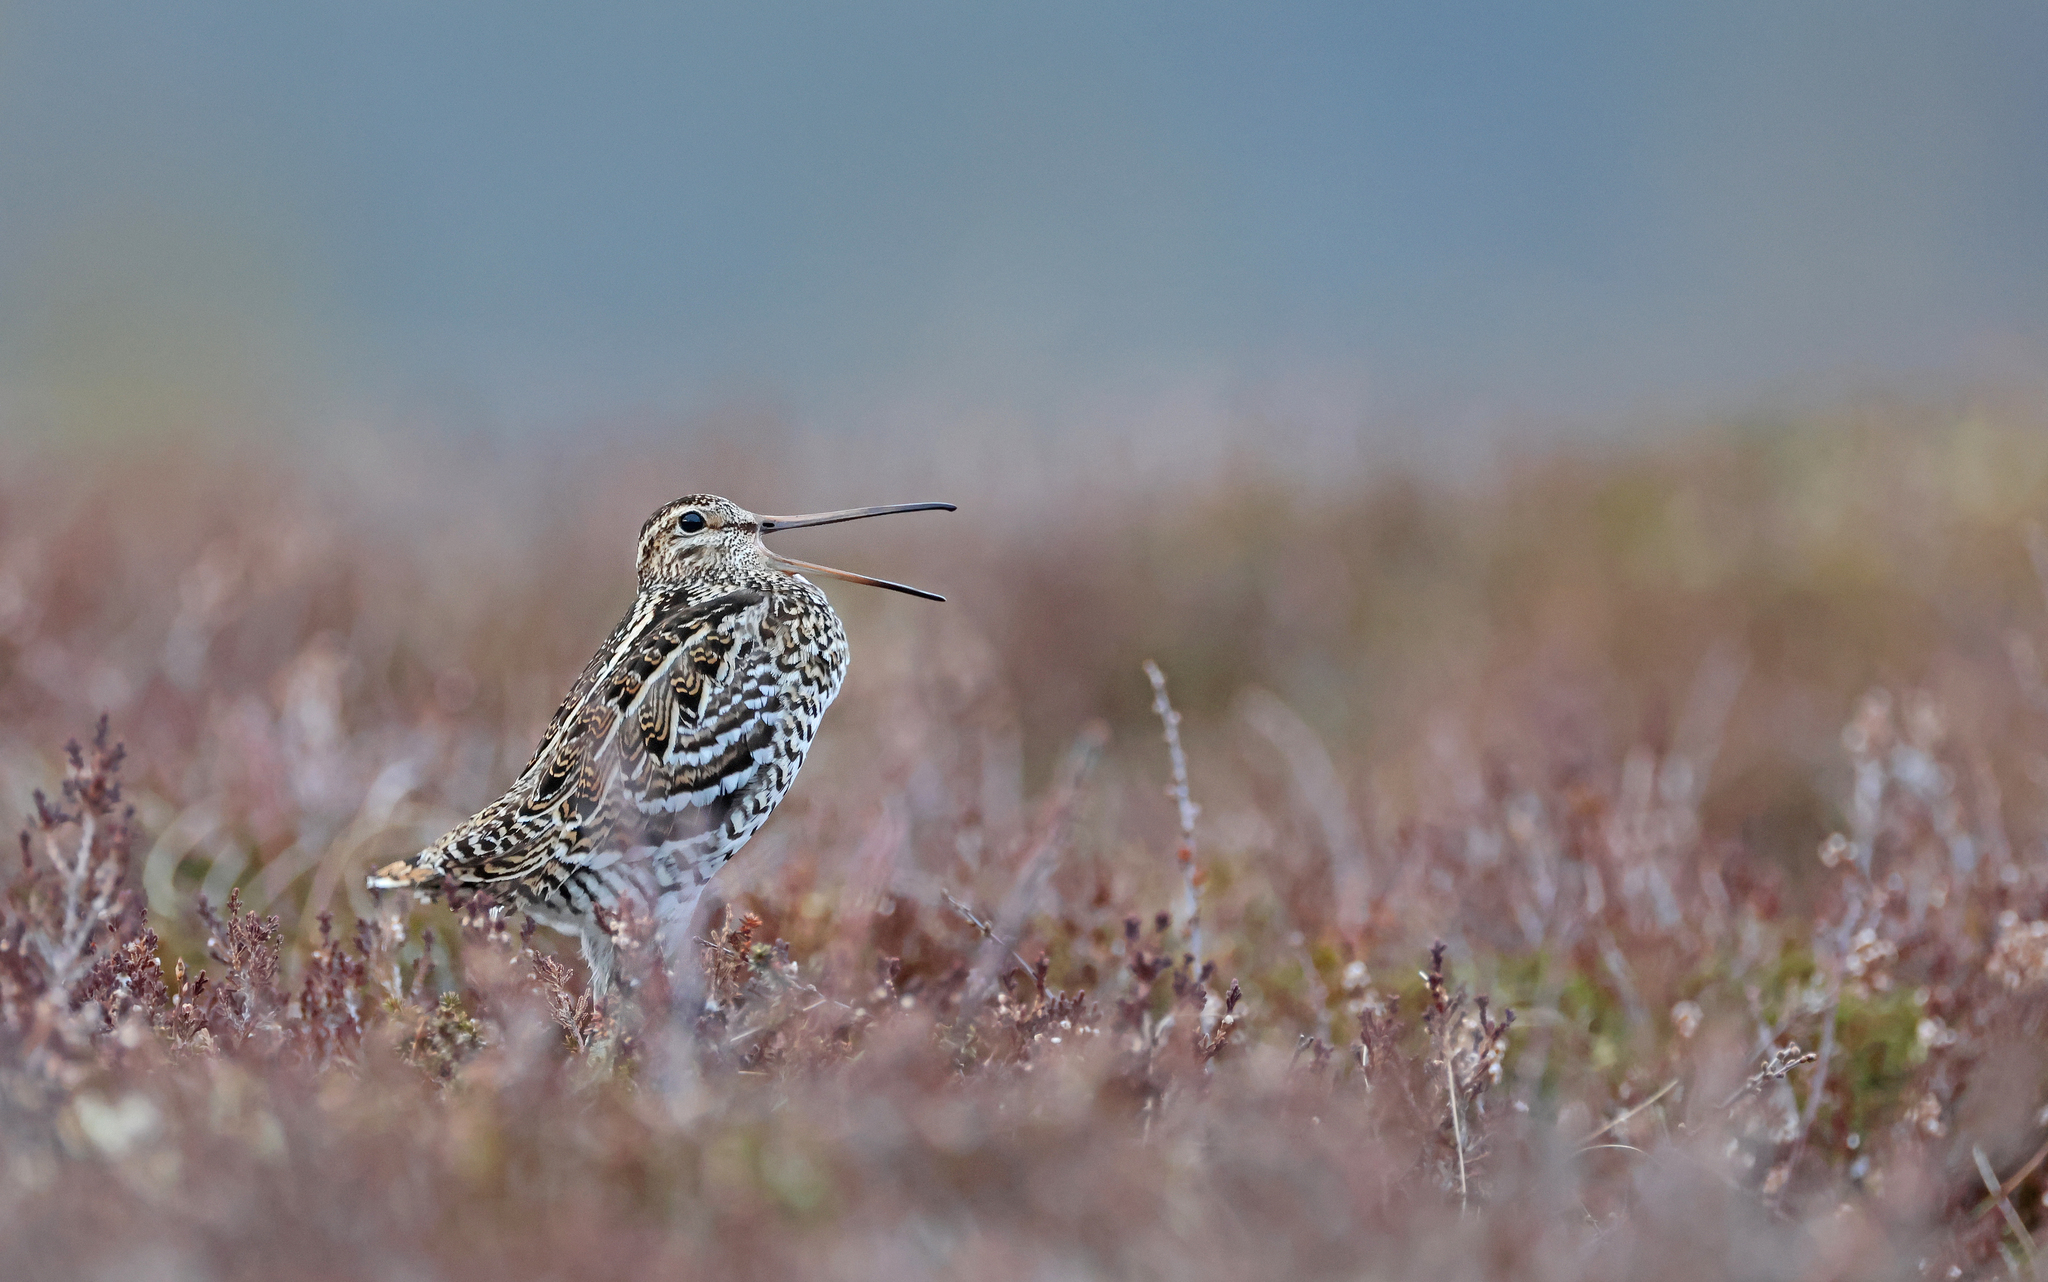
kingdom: Animalia
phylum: Chordata
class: Aves
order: Charadriiformes
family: Scolopacidae
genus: Gallinago
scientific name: Gallinago media
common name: Great snipe
